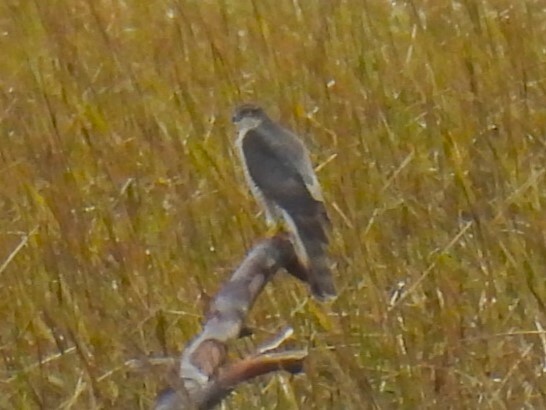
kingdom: Animalia
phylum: Chordata
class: Aves
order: Accipitriformes
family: Accipitridae
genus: Accipiter
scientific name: Accipiter nisus
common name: Eurasian sparrowhawk
